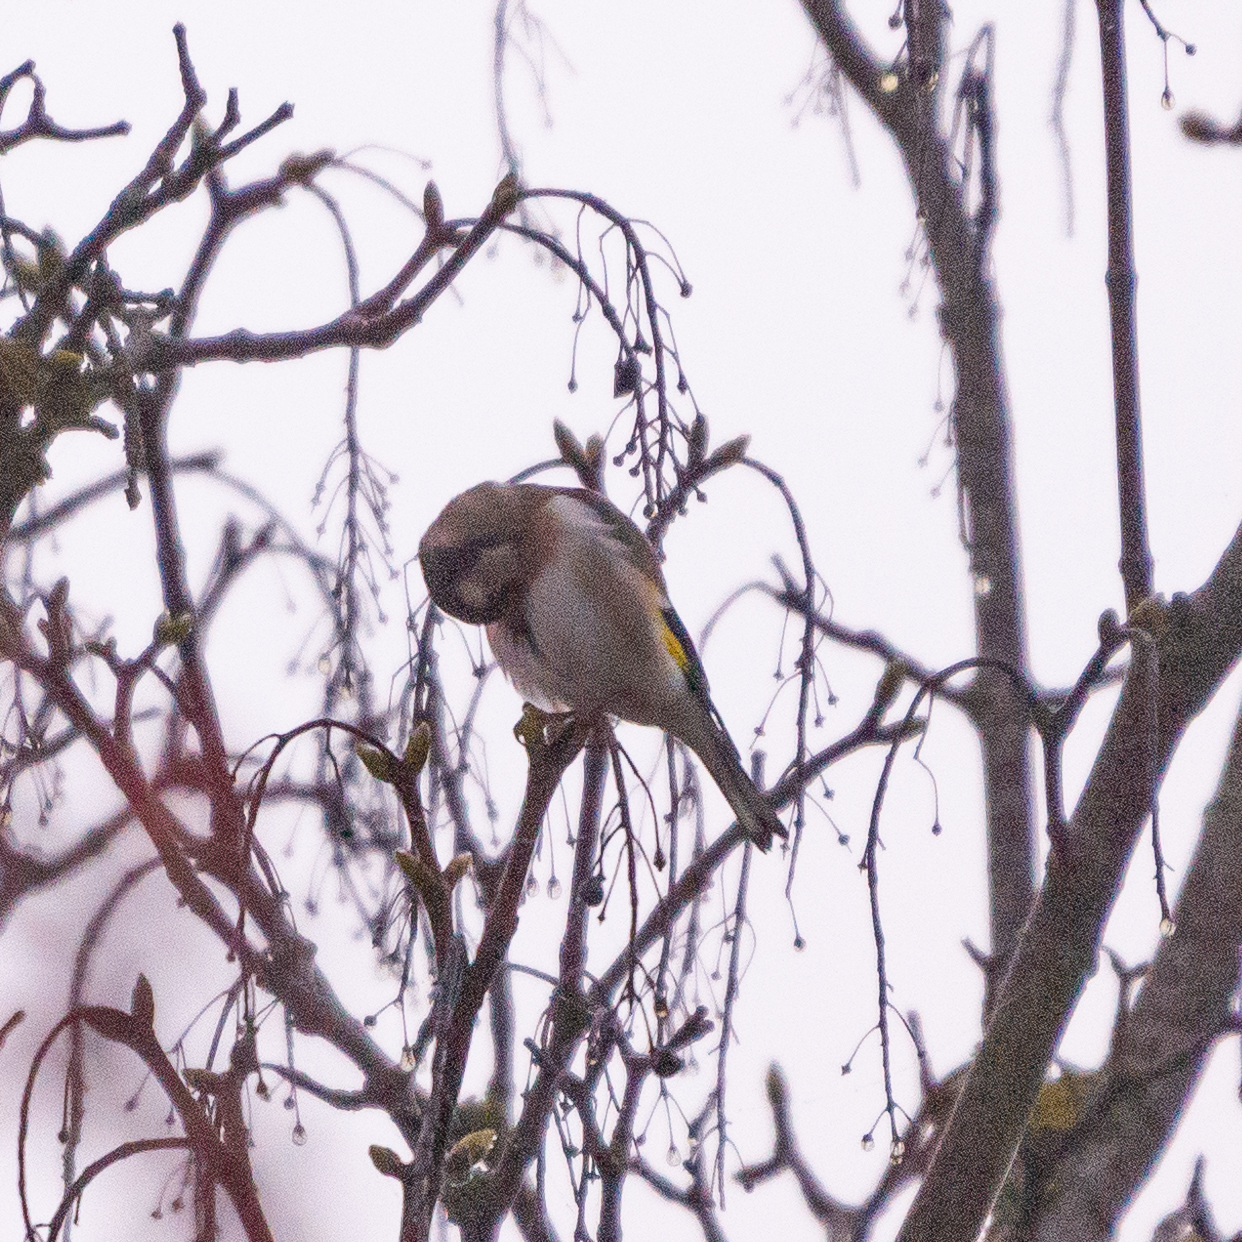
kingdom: Animalia
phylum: Chordata
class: Aves
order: Passeriformes
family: Fringillidae
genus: Carduelis
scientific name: Carduelis carduelis
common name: European goldfinch
